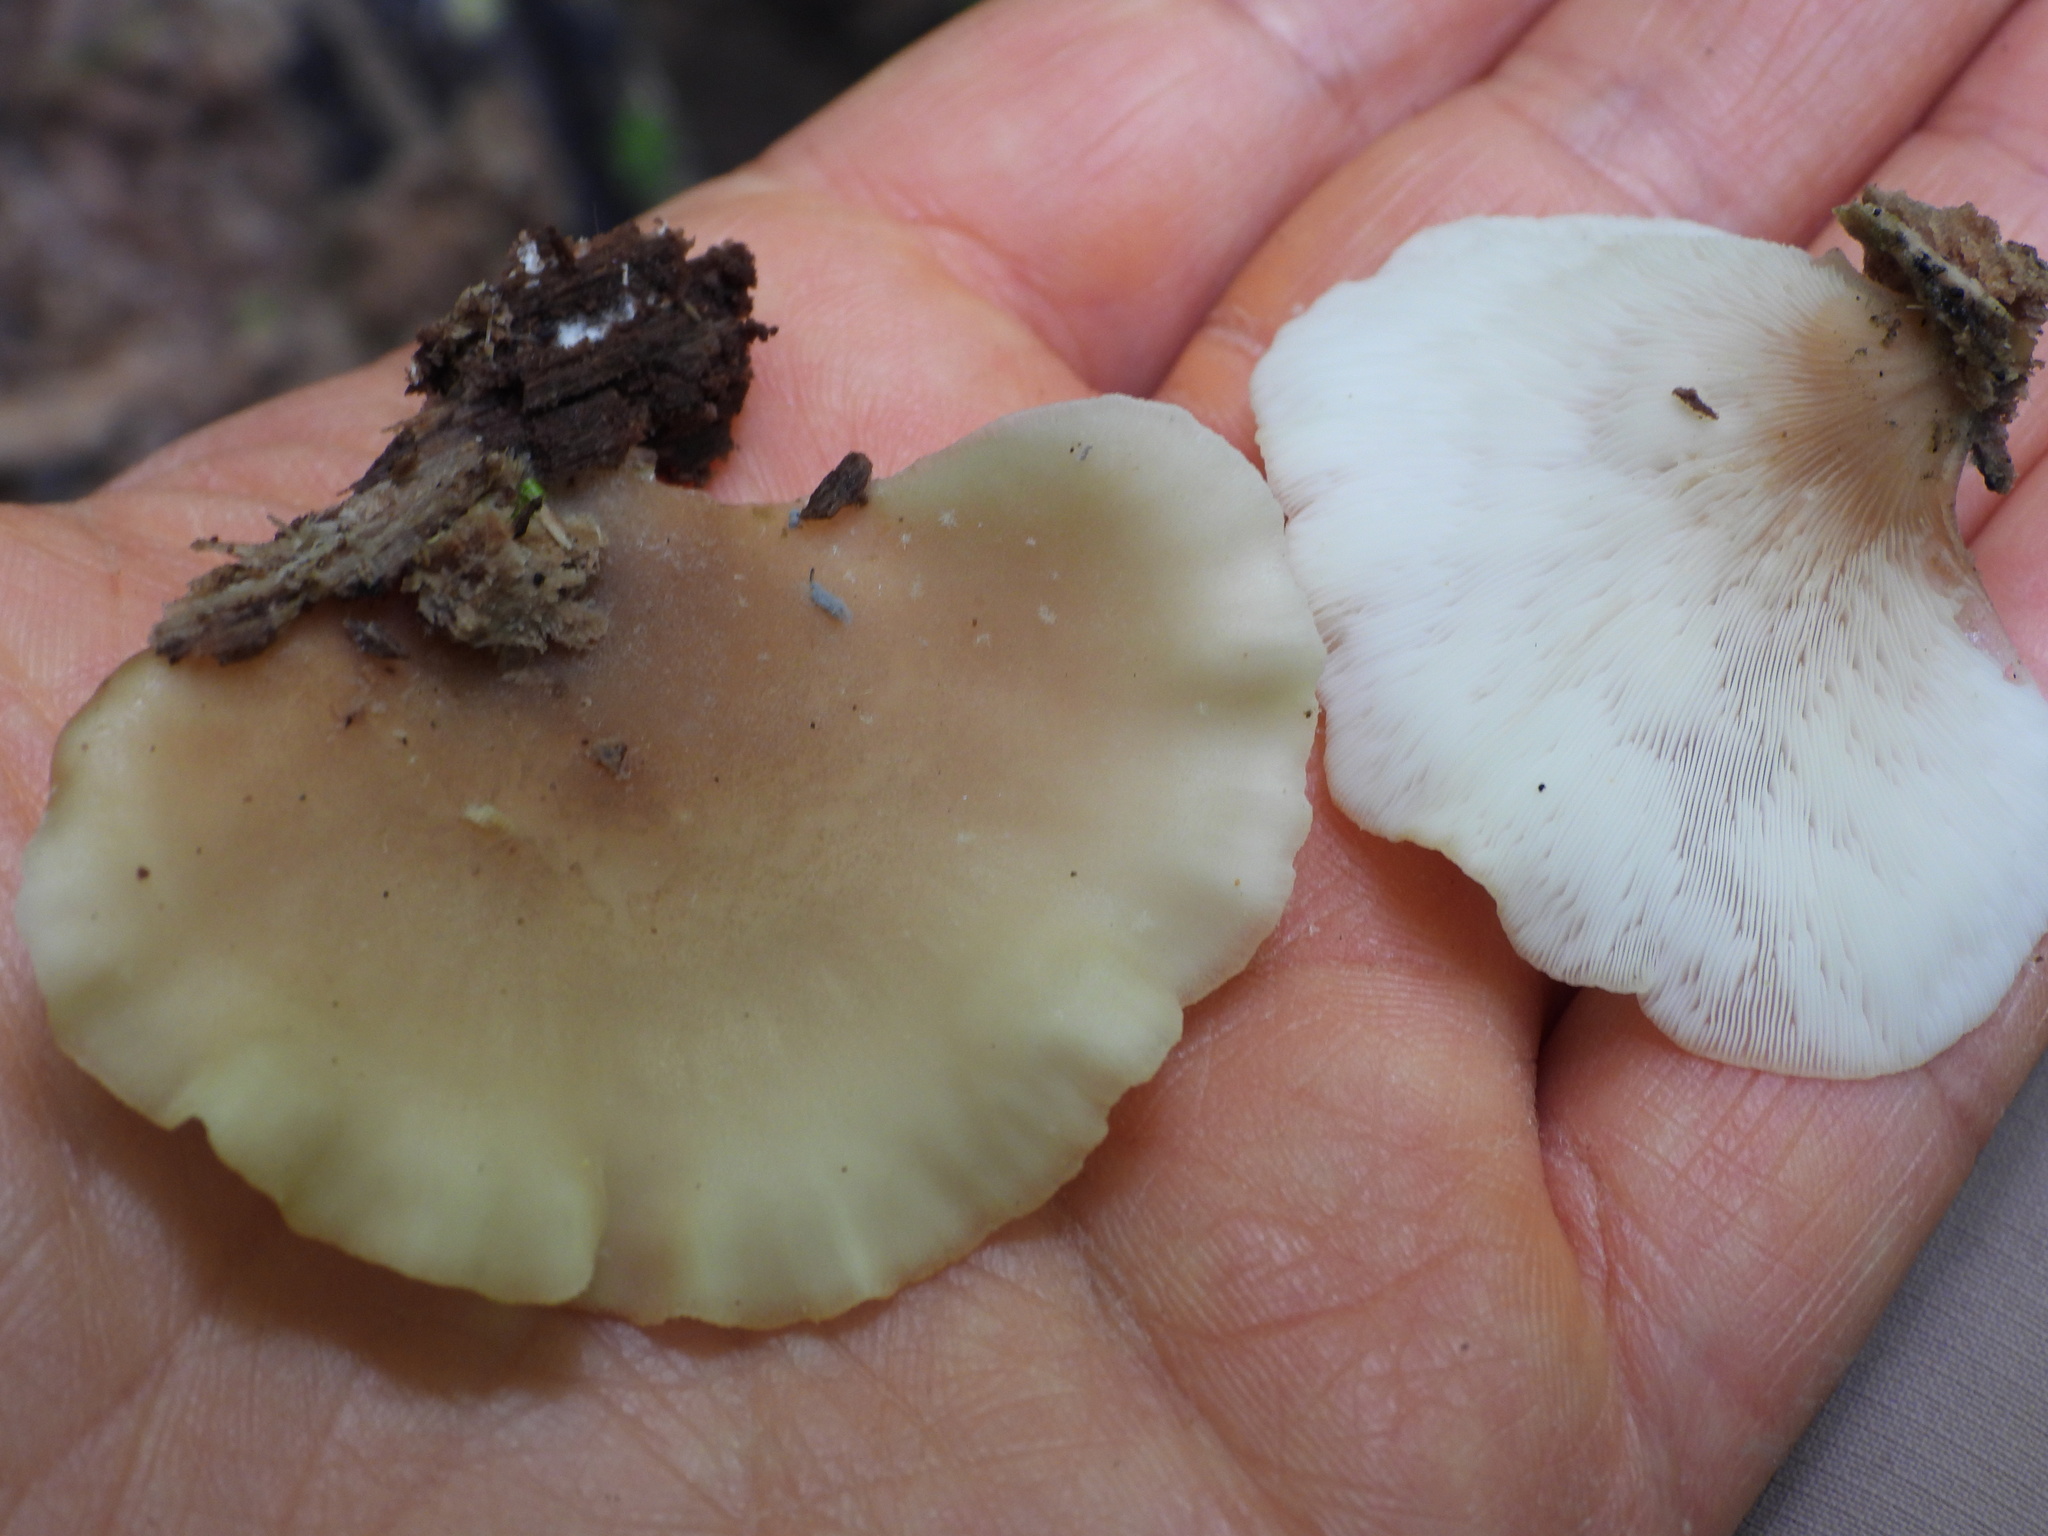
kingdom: Fungi
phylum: Basidiomycota
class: Agaricomycetes
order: Agaricales
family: Pleurotaceae
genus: Hohenbuehelia
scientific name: Hohenbuehelia angustata
